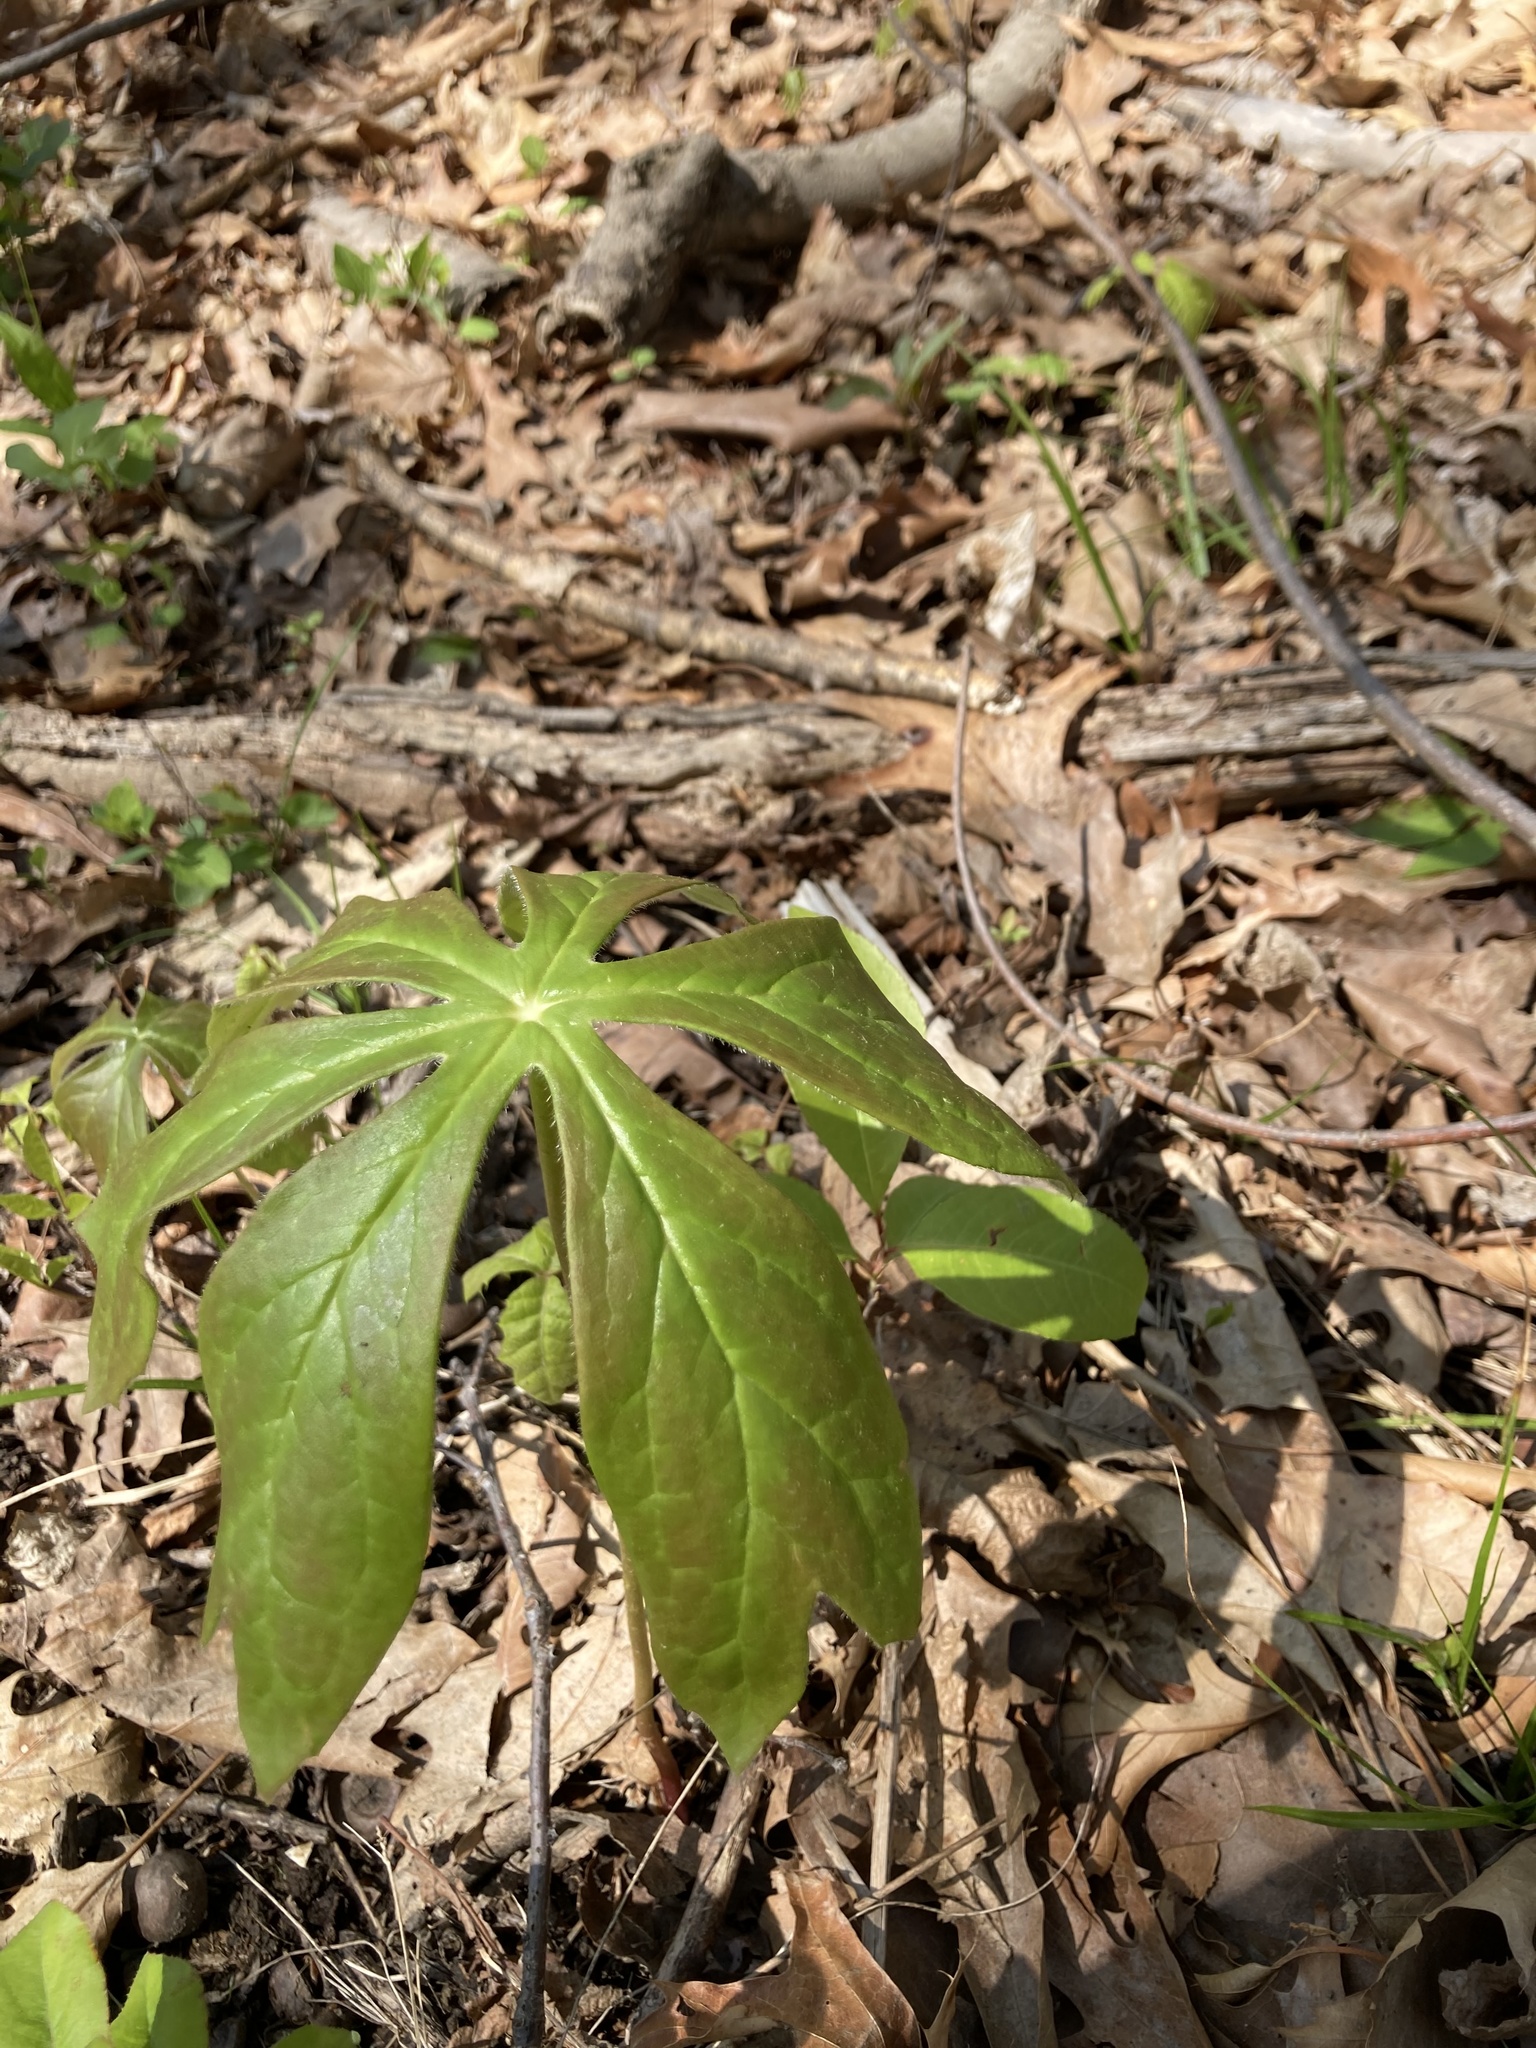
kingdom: Plantae
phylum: Tracheophyta
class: Magnoliopsida
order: Ranunculales
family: Berberidaceae
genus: Podophyllum
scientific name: Podophyllum peltatum
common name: Wild mandrake
